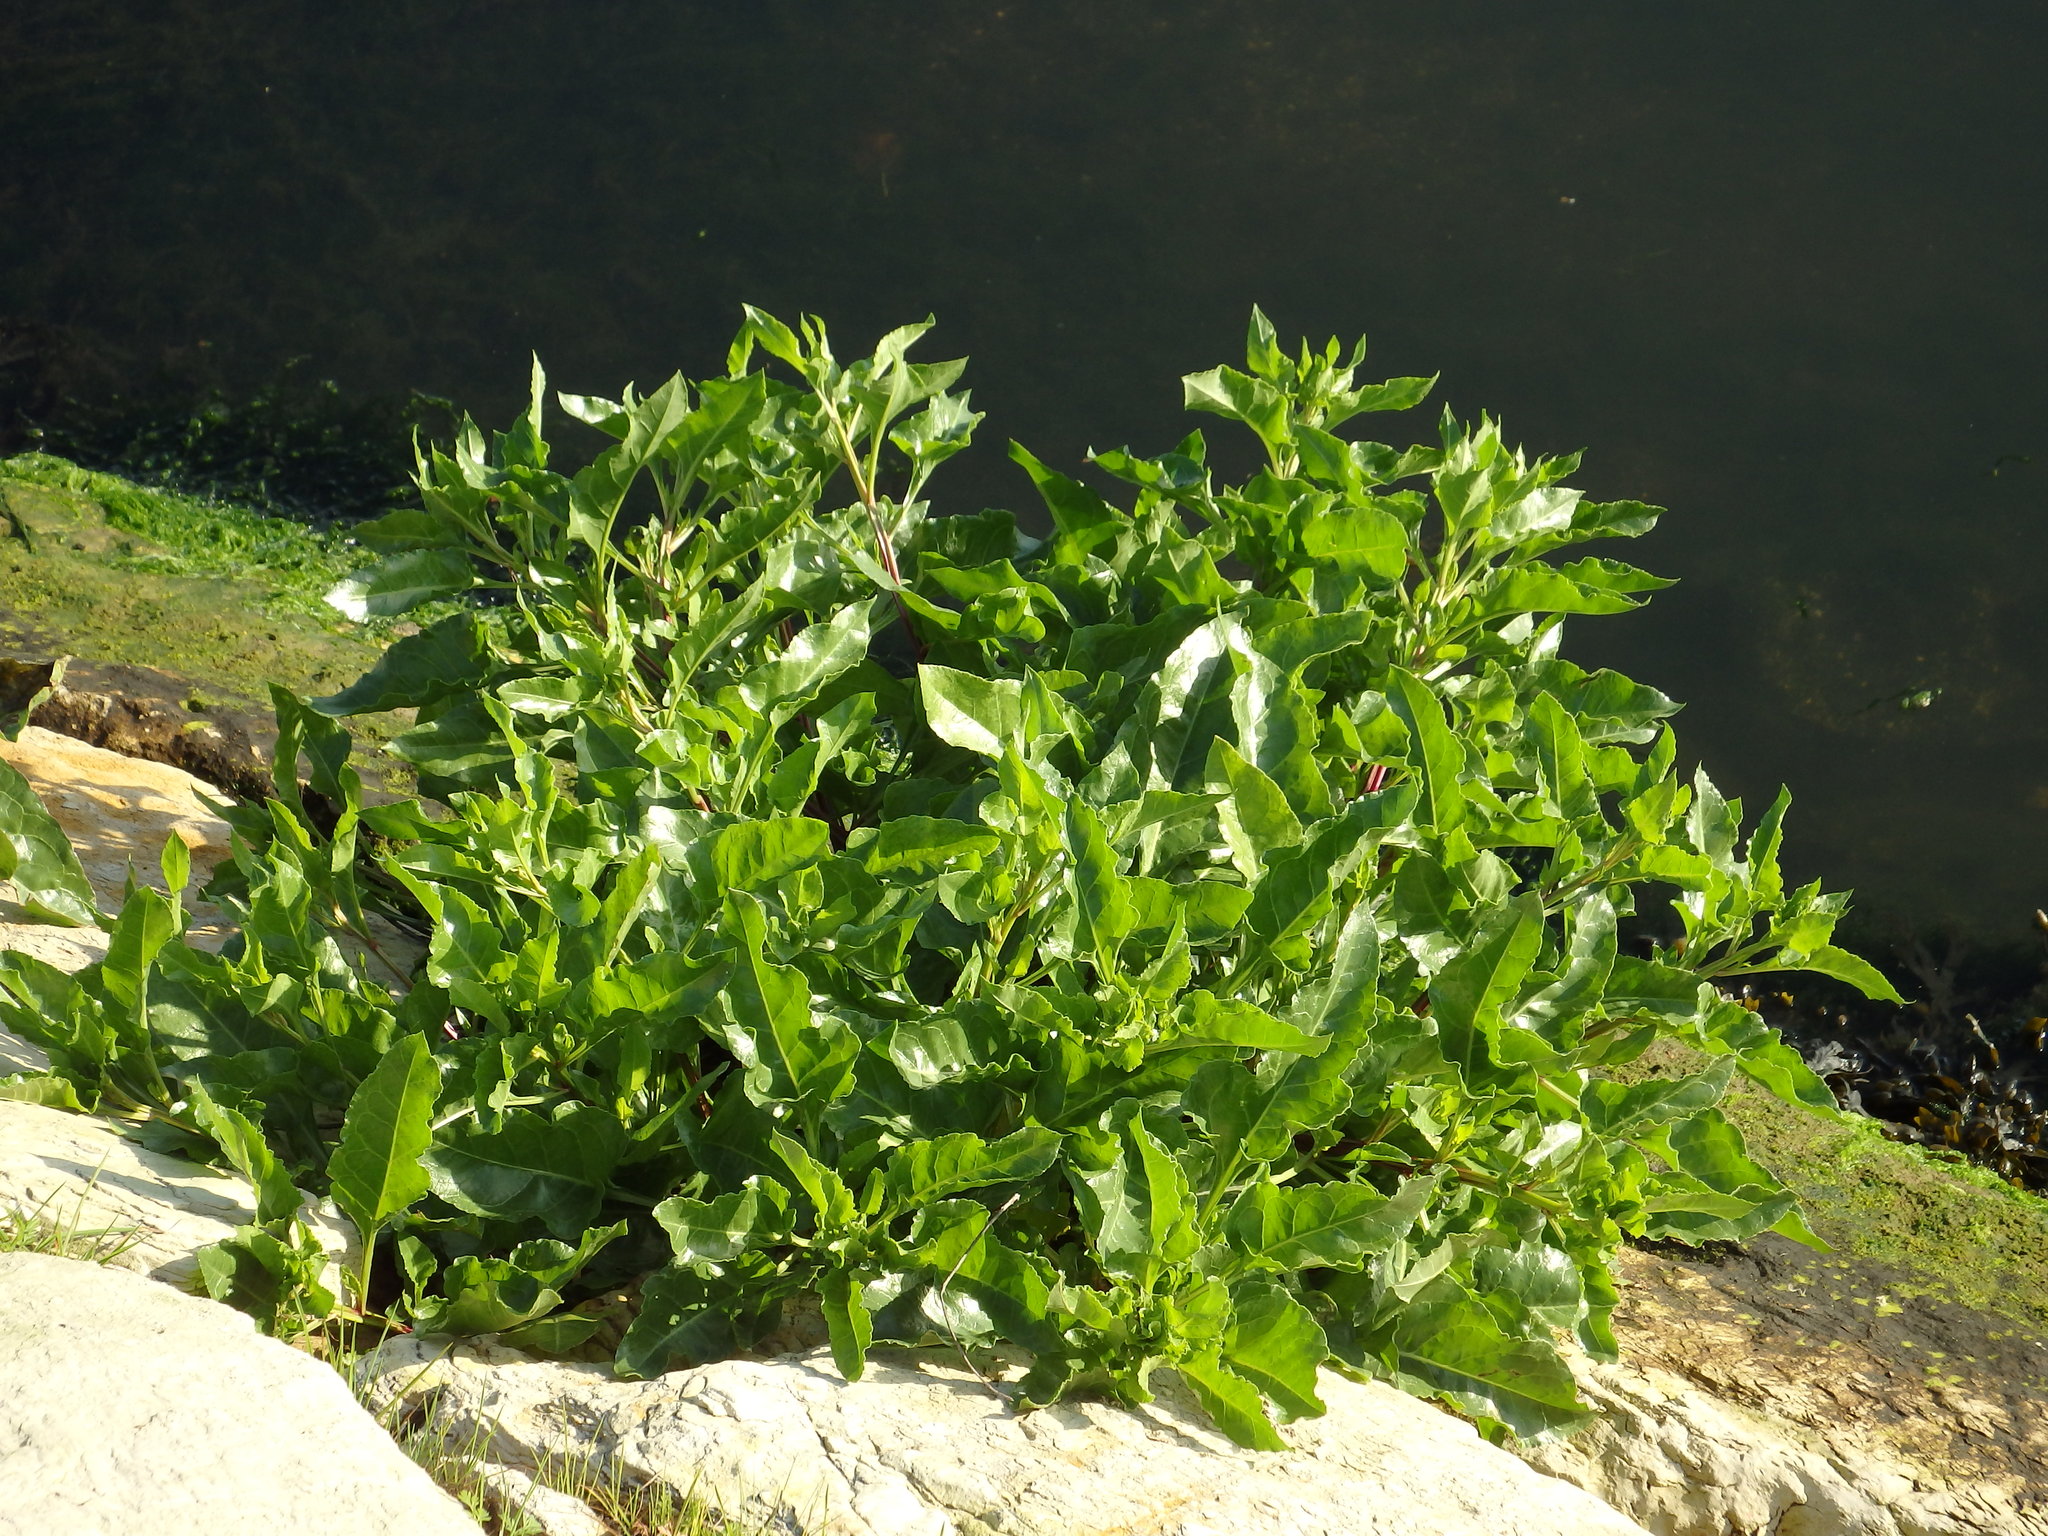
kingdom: Plantae
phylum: Tracheophyta
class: Magnoliopsida
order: Caryophyllales
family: Amaranthaceae
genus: Beta
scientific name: Beta vulgaris
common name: Beet
